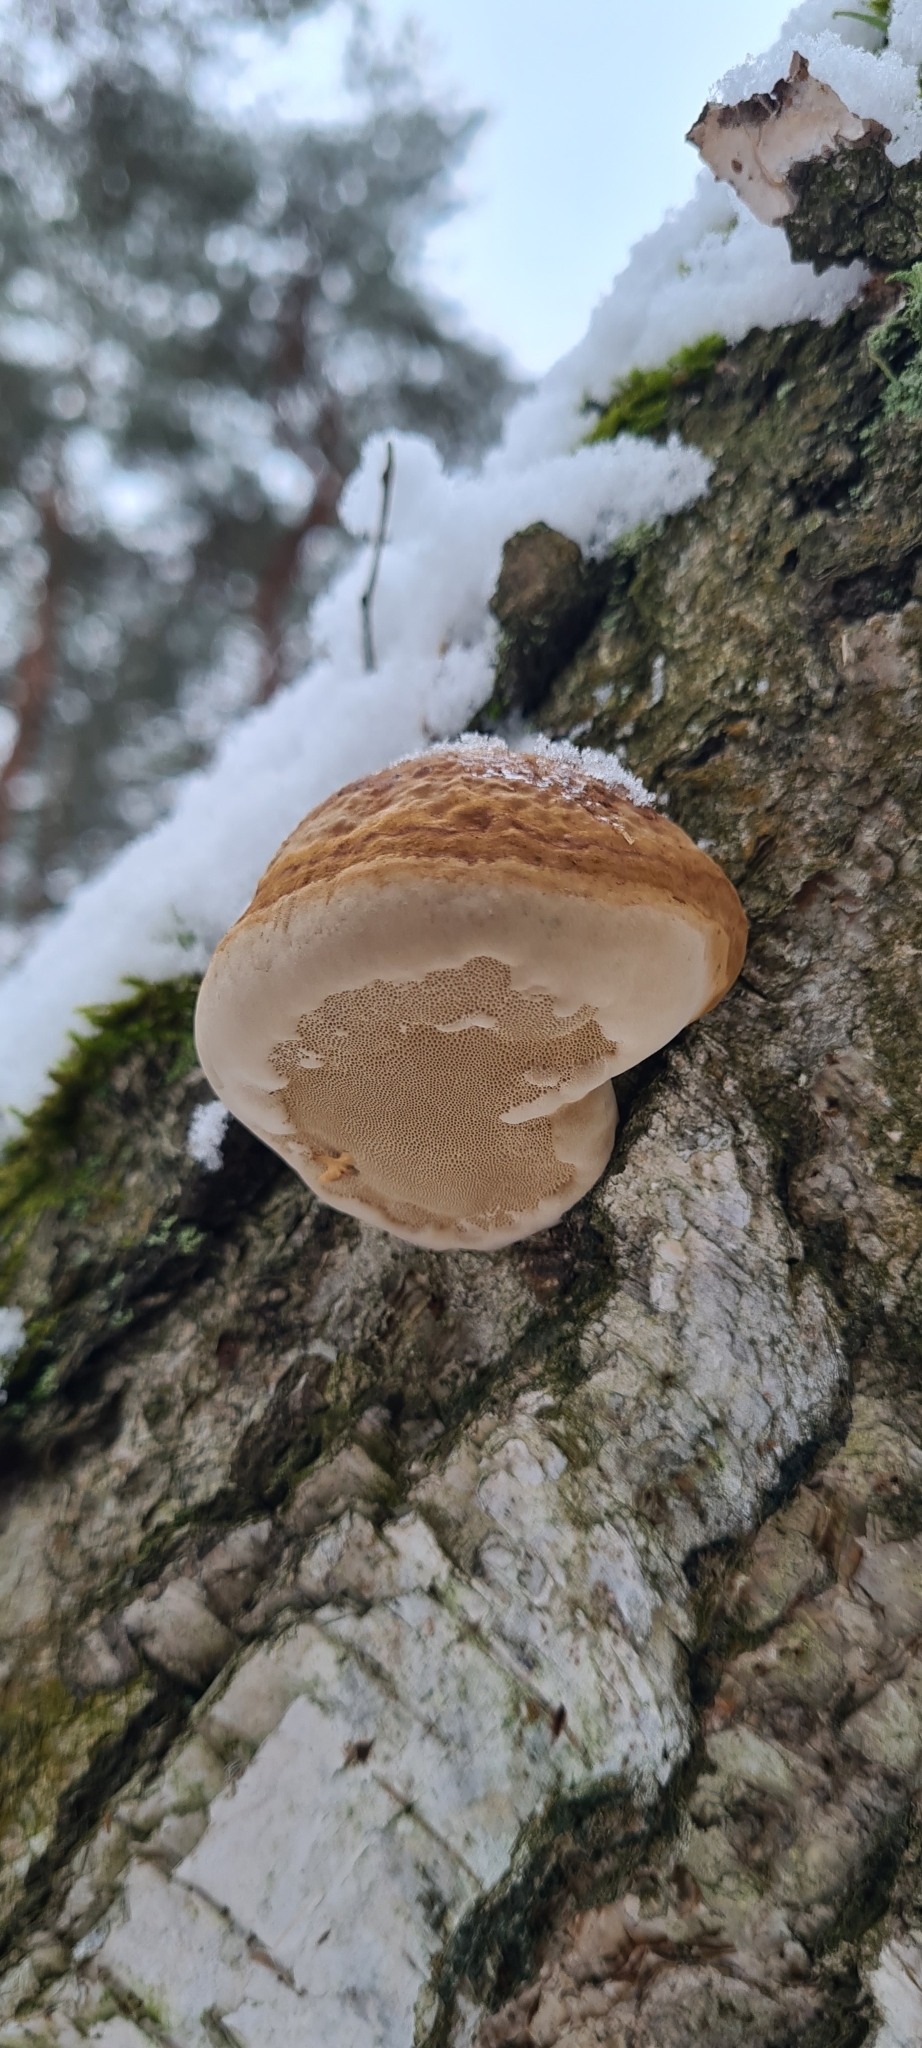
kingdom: Fungi
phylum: Basidiomycota
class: Agaricomycetes
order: Polyporales
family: Polyporaceae
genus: Fomes
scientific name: Fomes fomentarius
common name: Hoof fungus
